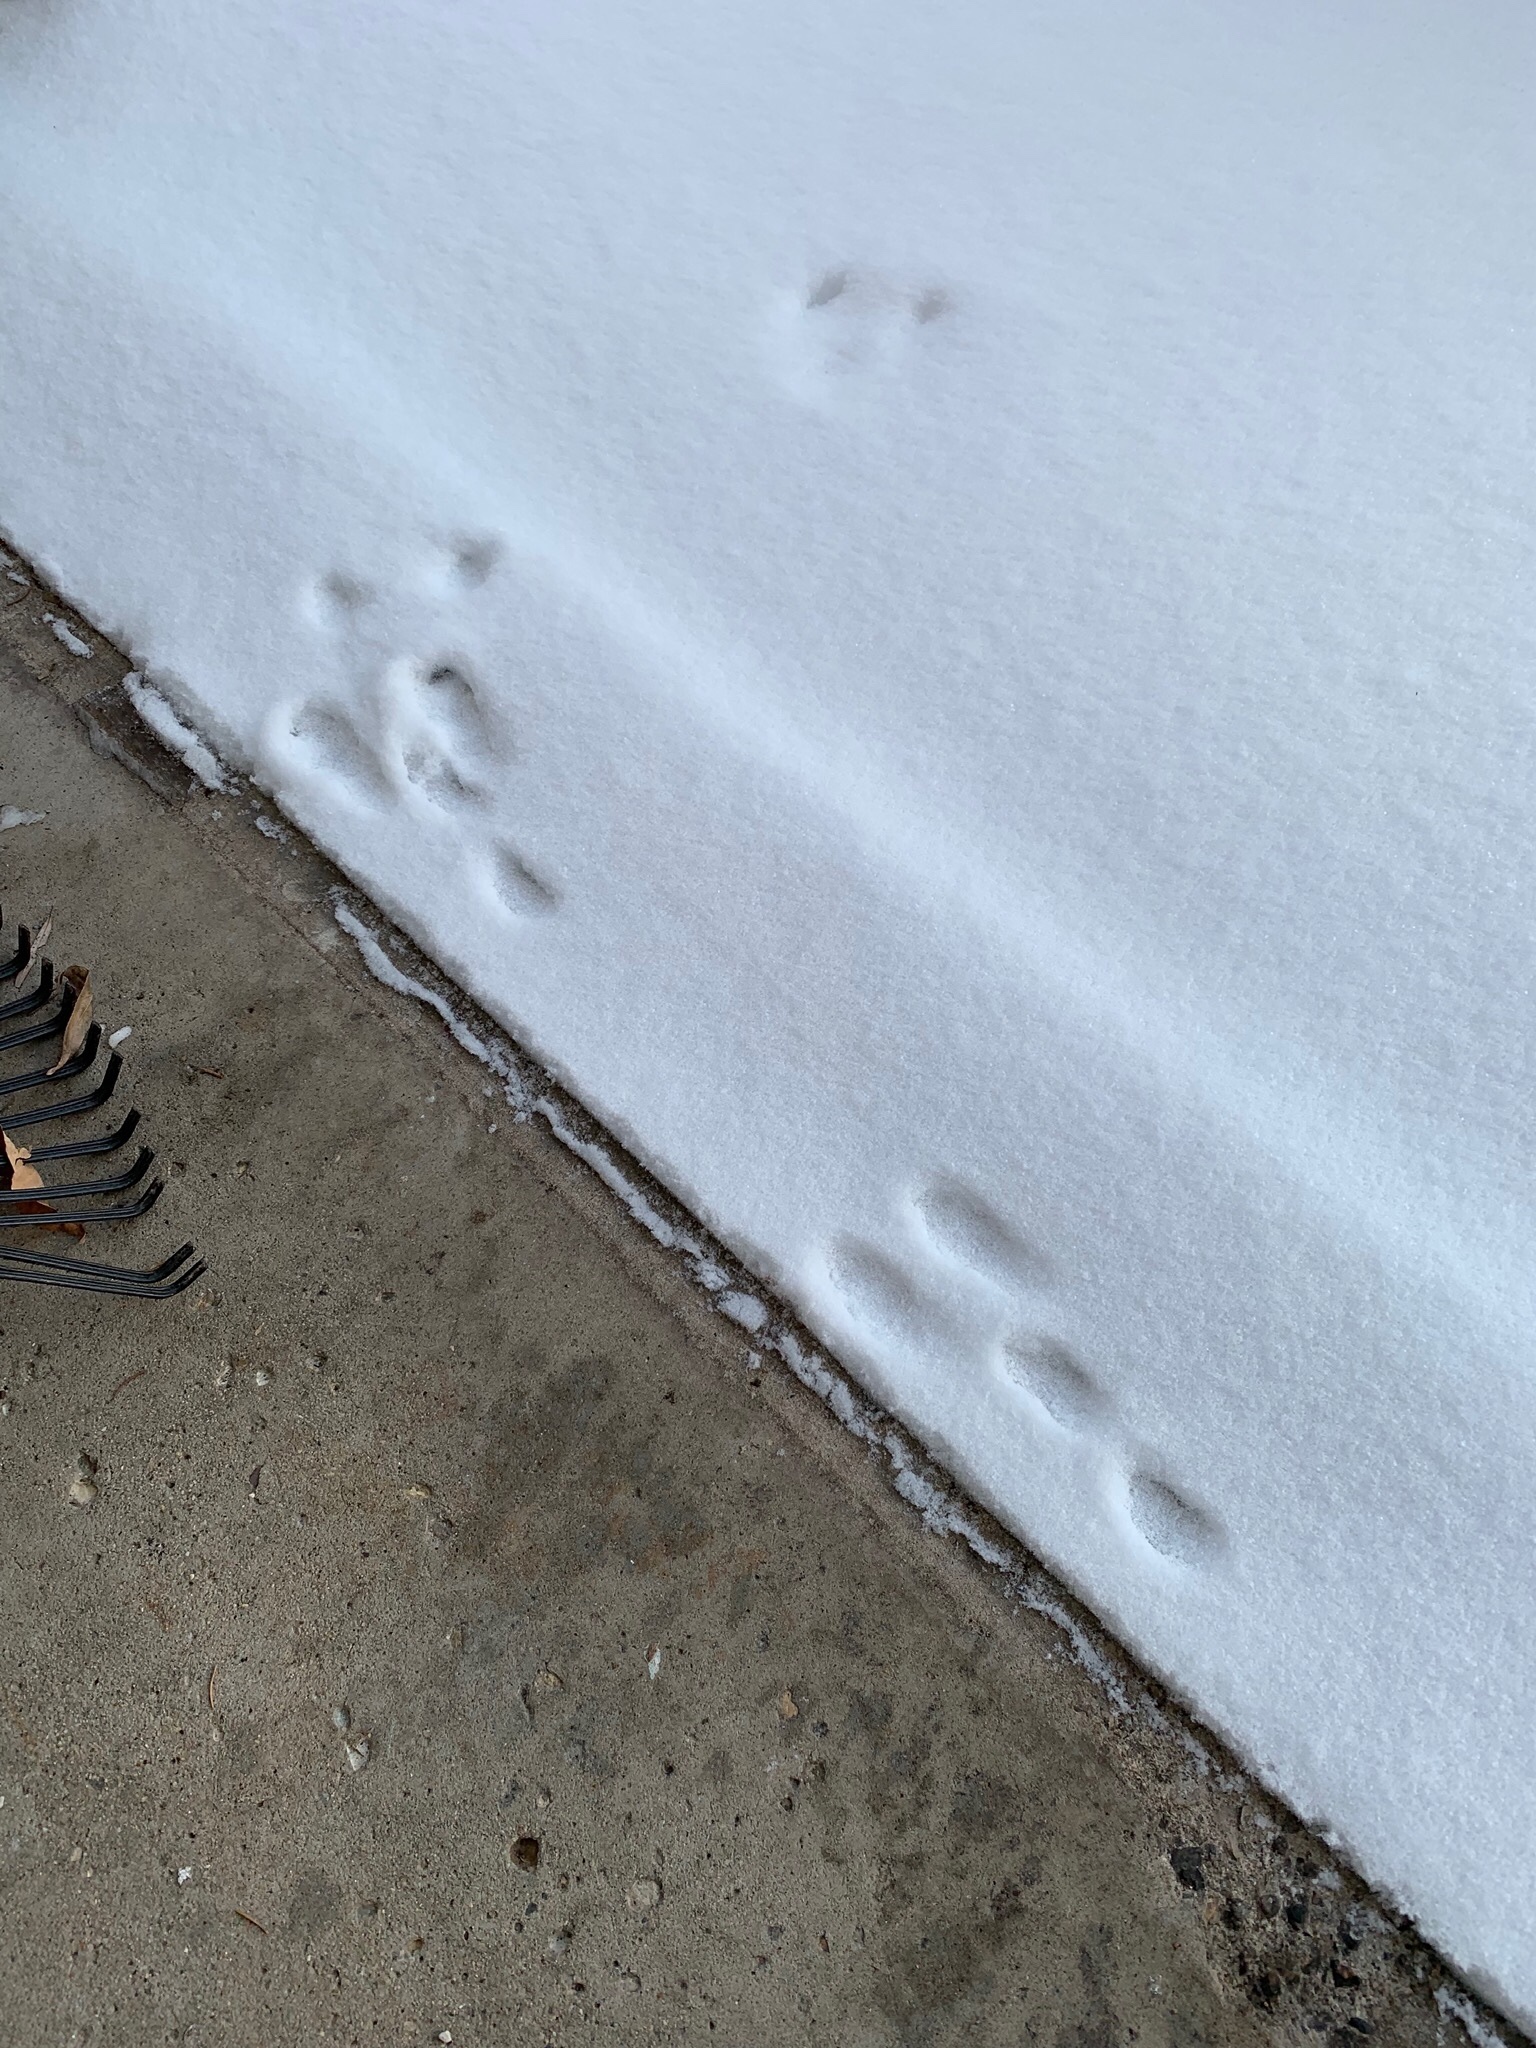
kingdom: Animalia
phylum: Chordata
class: Mammalia
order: Lagomorpha
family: Leporidae
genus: Sylvilagus
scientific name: Sylvilagus floridanus
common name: Eastern cottontail
